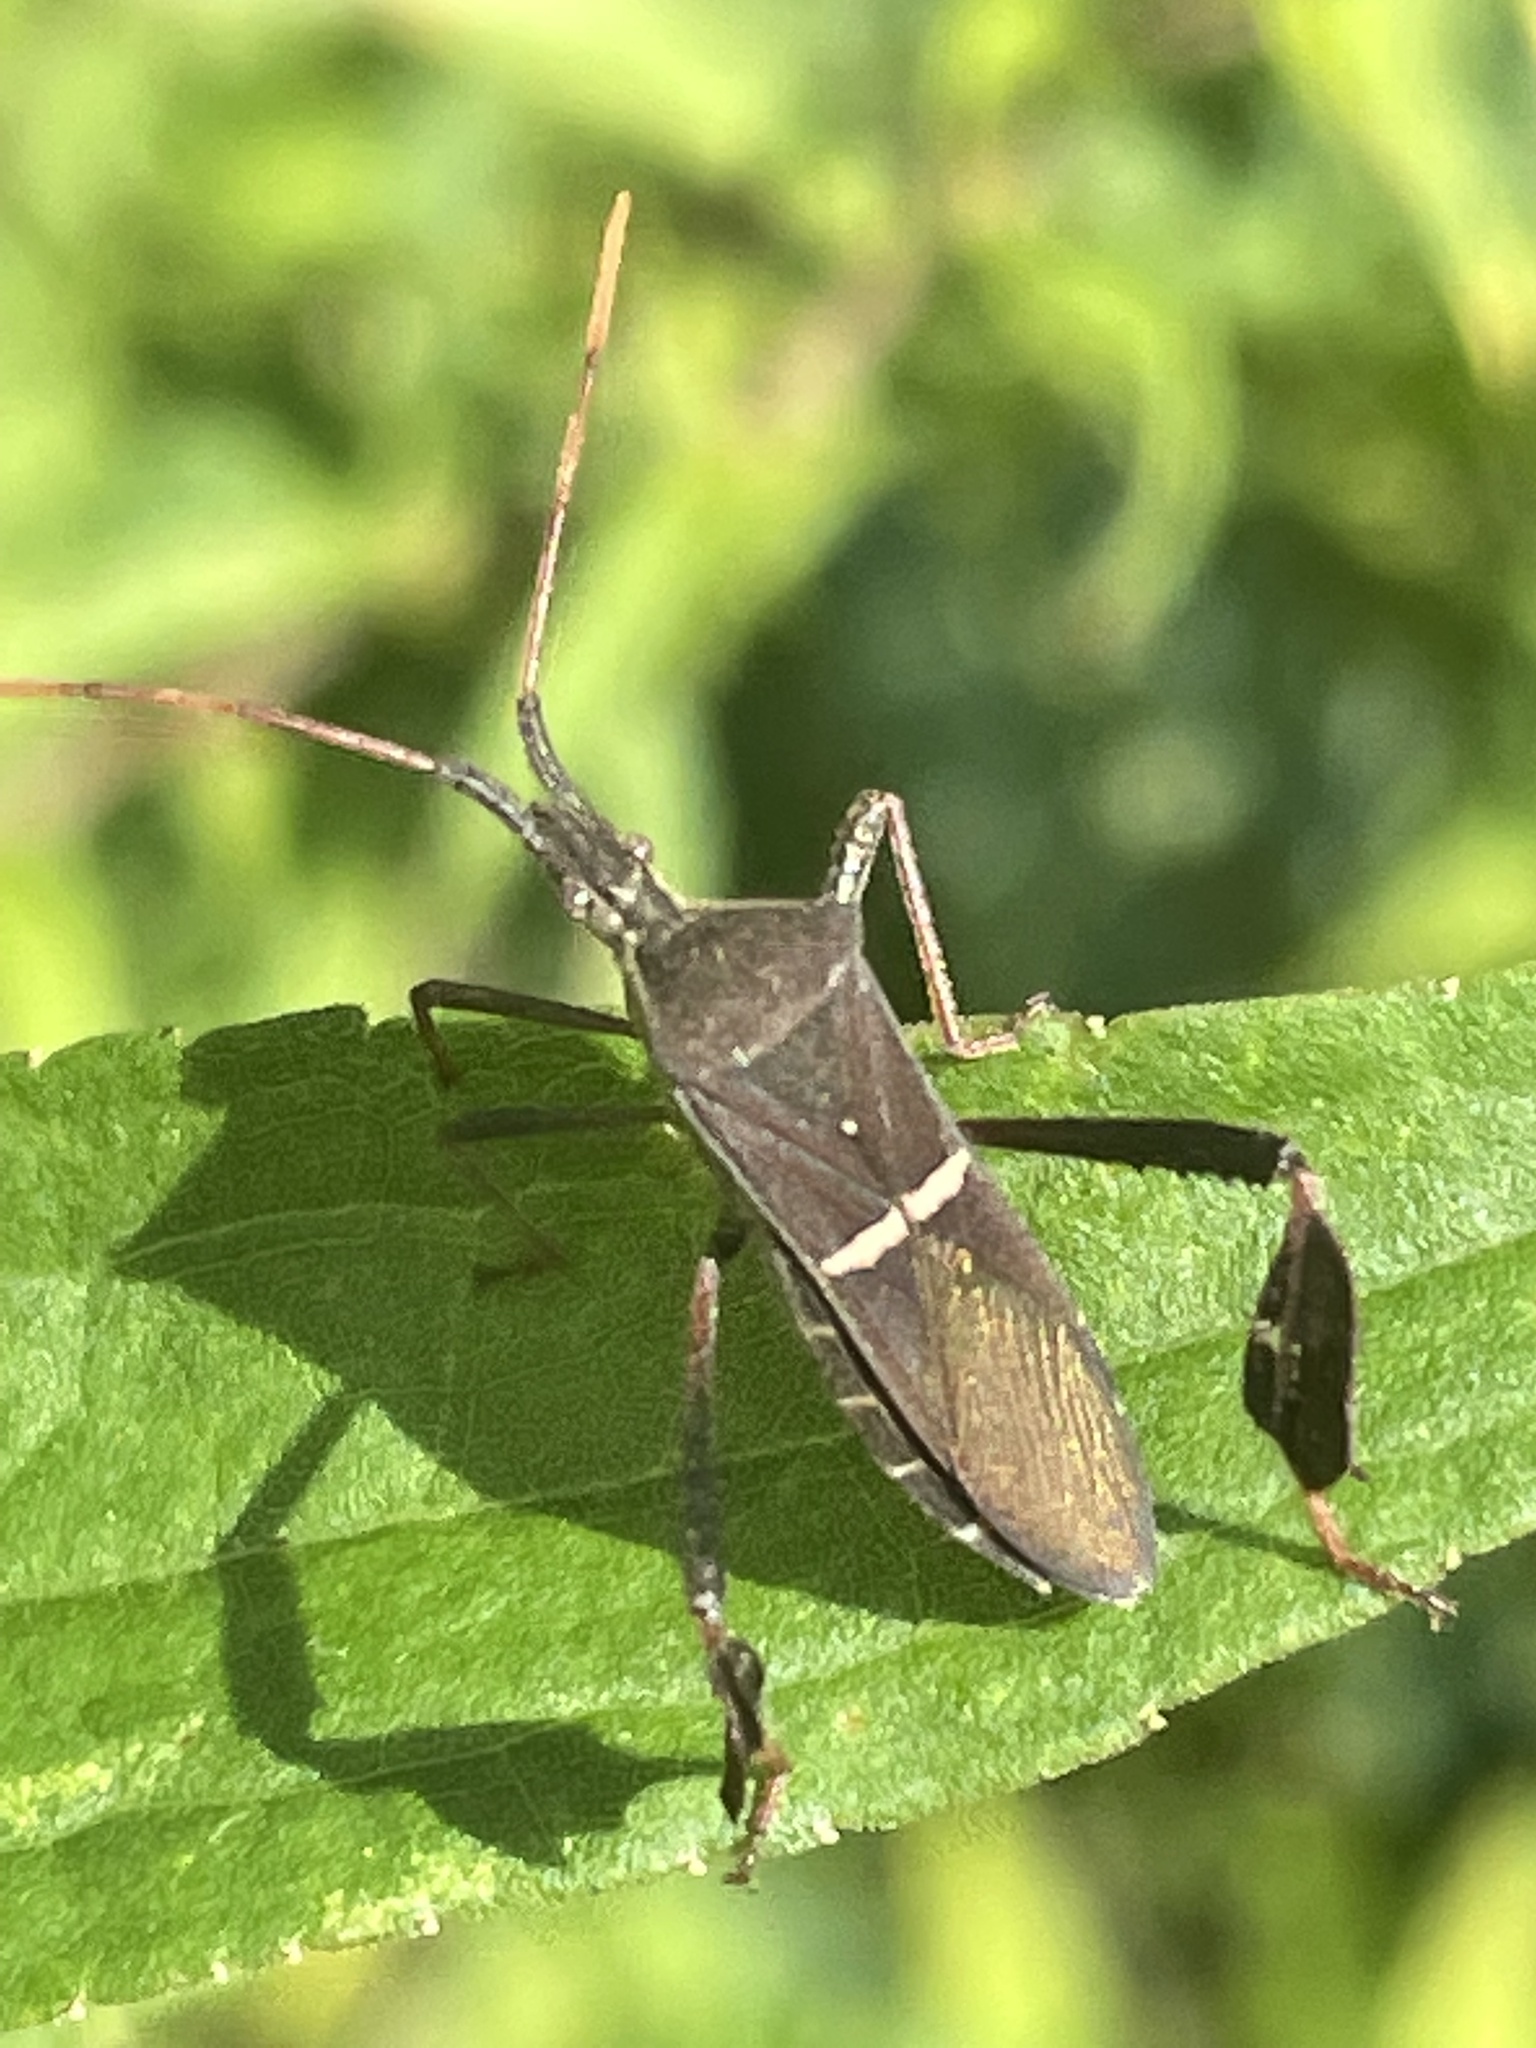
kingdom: Animalia
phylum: Arthropoda
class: Insecta
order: Hemiptera
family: Coreidae
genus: Leptoglossus
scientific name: Leptoglossus phyllopus
